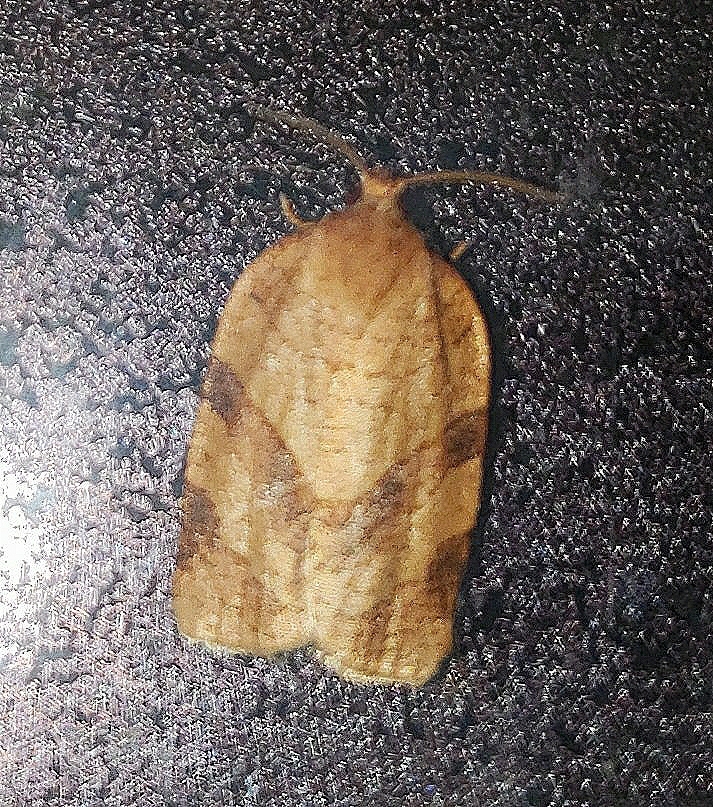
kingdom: Animalia
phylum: Arthropoda
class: Insecta
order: Lepidoptera
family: Tortricidae
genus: Choristoneura
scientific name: Choristoneura parallela
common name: Parallel-banded leafroller moth
